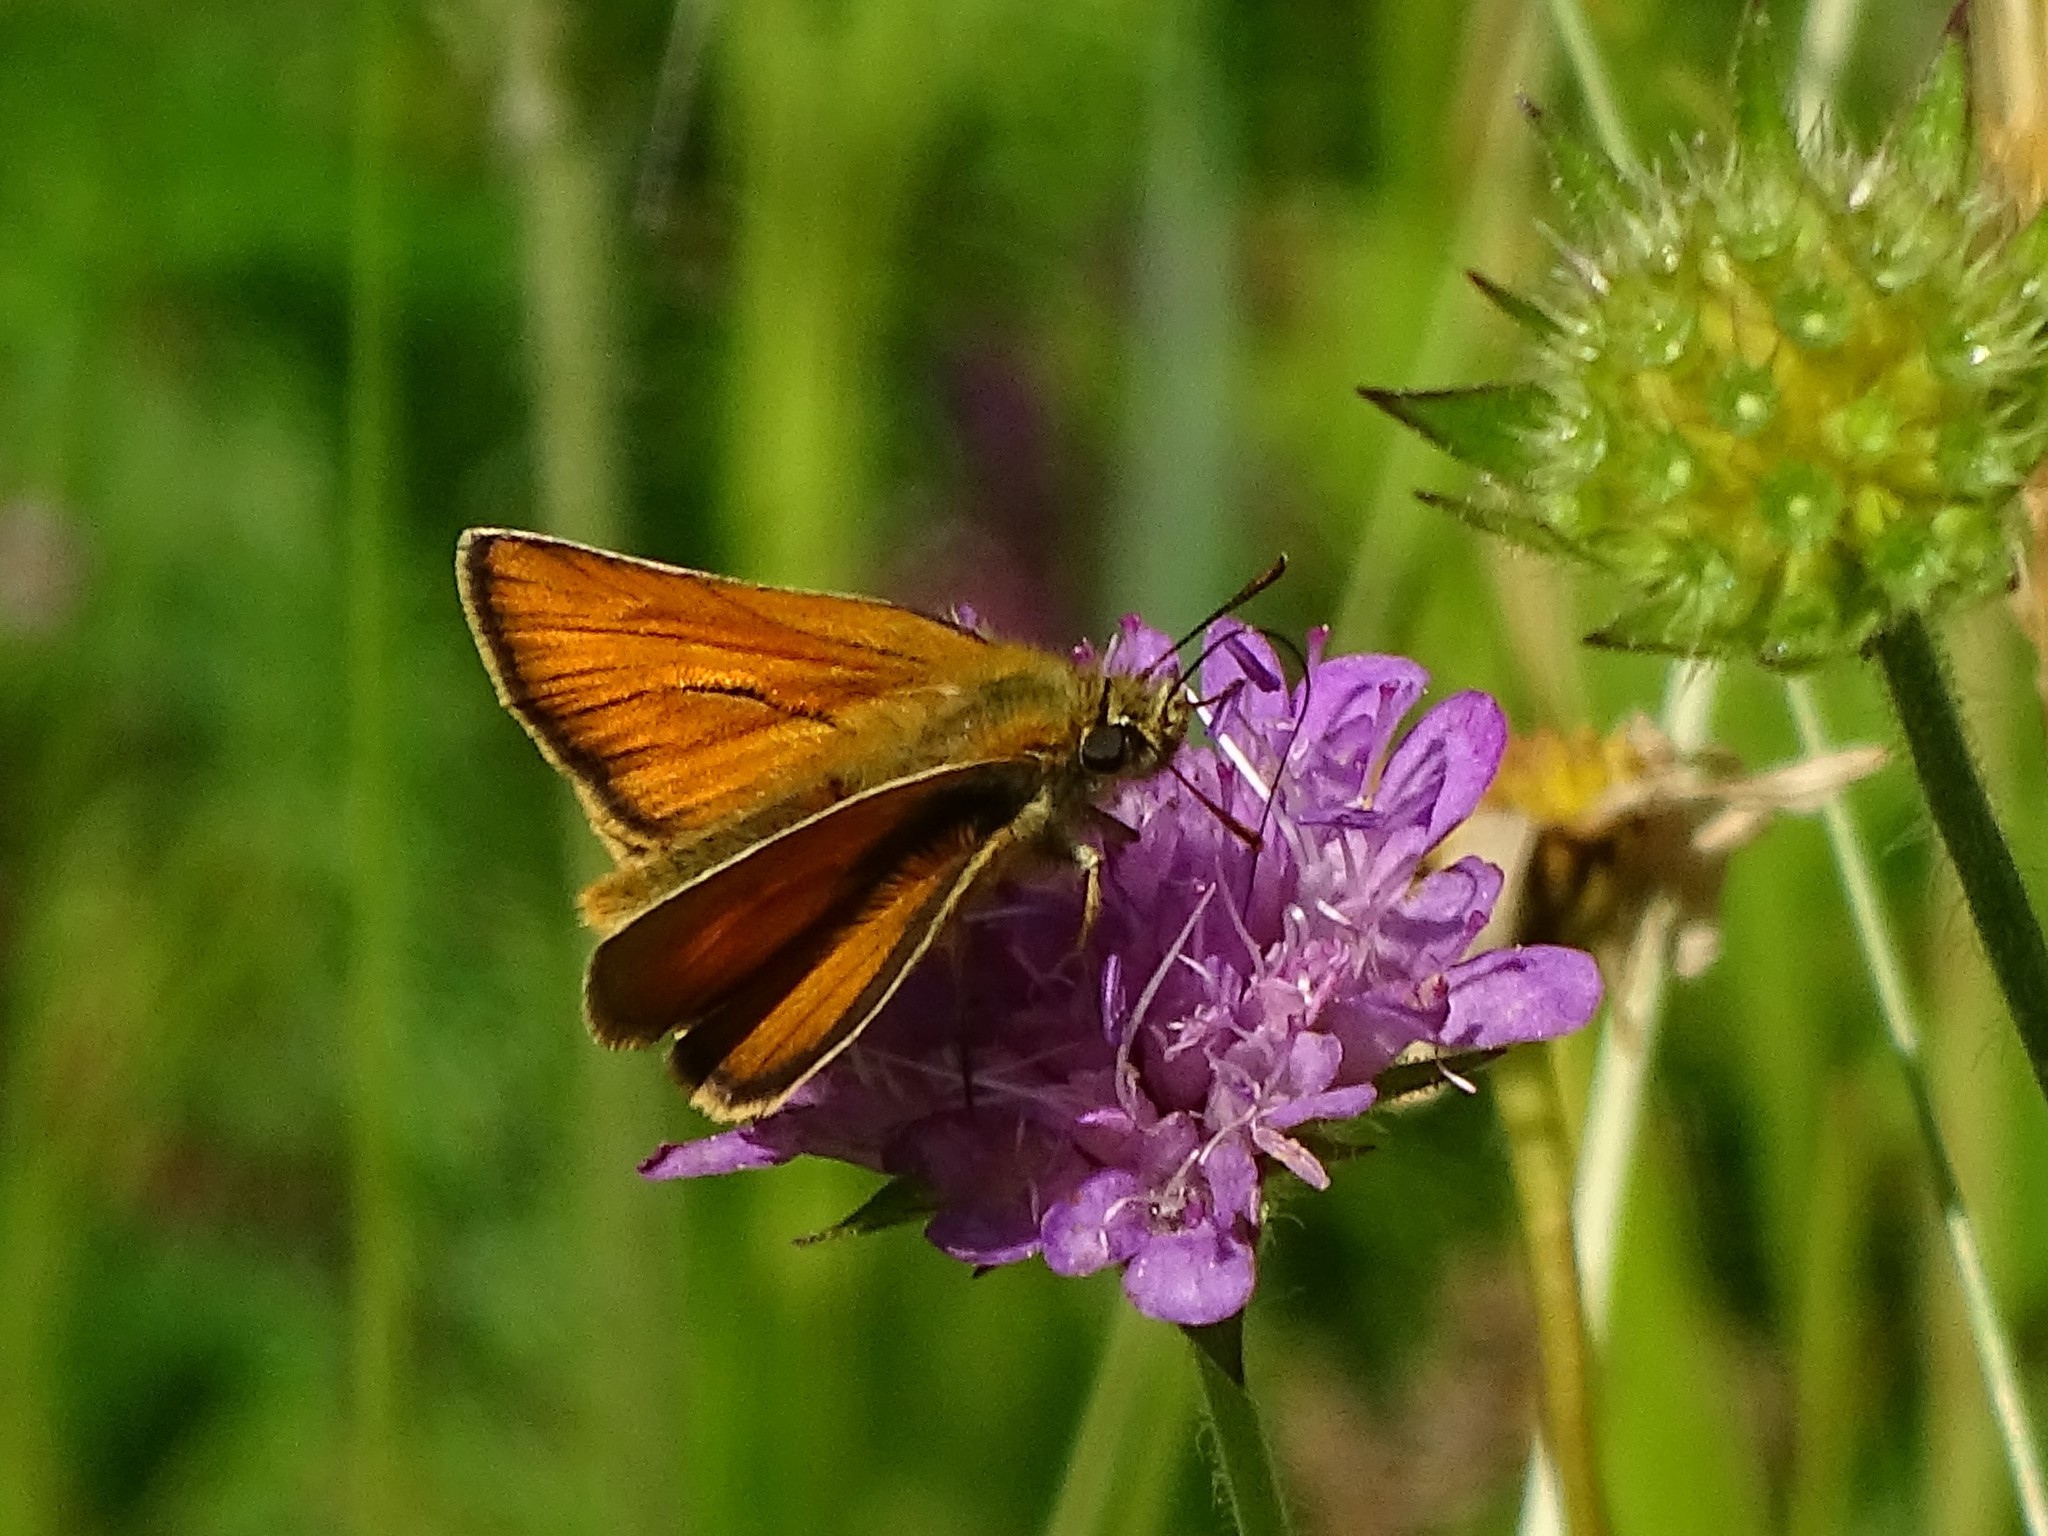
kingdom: Animalia
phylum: Arthropoda
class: Insecta
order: Lepidoptera
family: Hesperiidae
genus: Thymelicus
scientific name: Thymelicus sylvestris
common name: Small skipper
